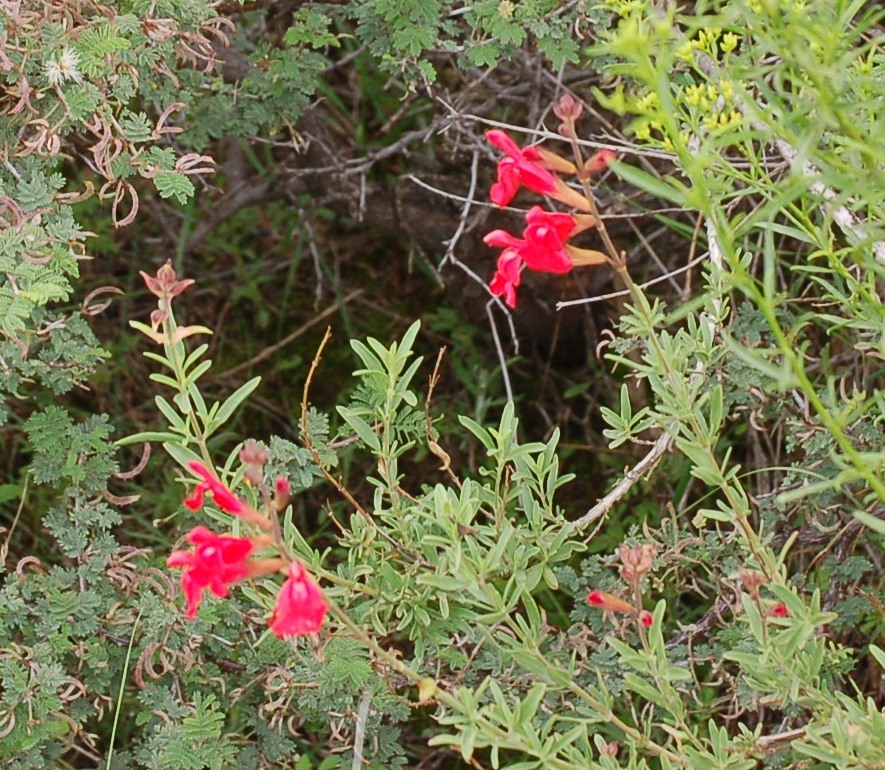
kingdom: Plantae
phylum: Tracheophyta
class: Magnoliopsida
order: Lamiales
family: Lamiaceae
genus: Salvia
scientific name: Salvia greggii
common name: Autumn sage
